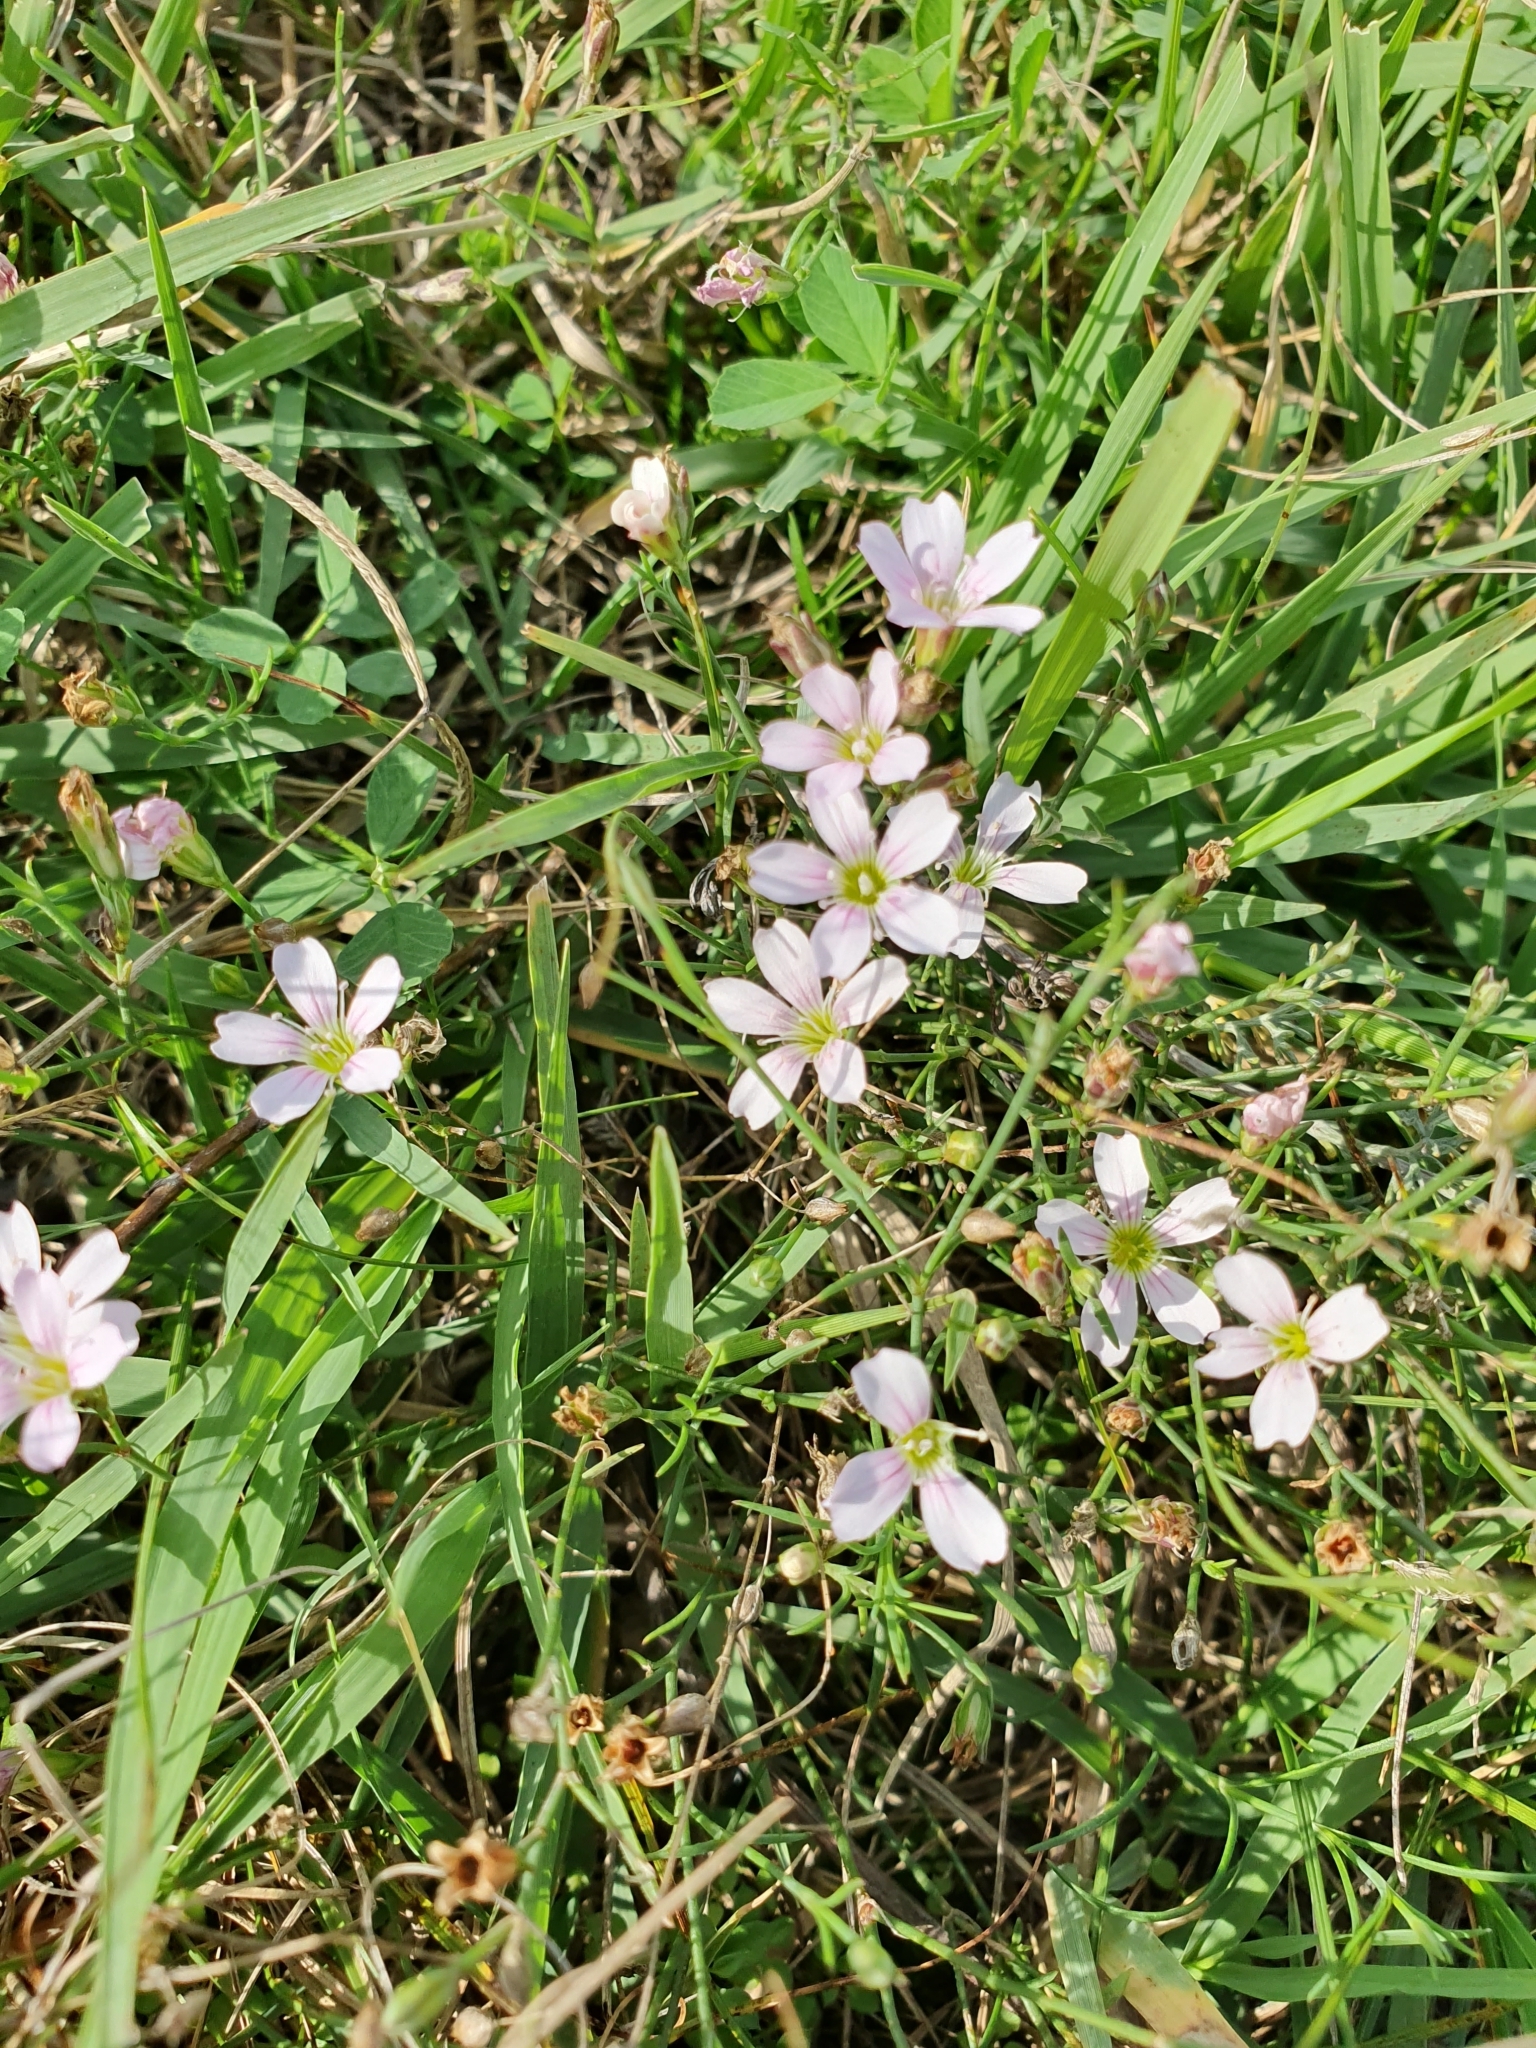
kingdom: Plantae
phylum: Tracheophyta
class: Magnoliopsida
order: Caryophyllales
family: Caryophyllaceae
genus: Petrorhagia
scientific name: Petrorhagia saxifraga
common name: Tunicflower
